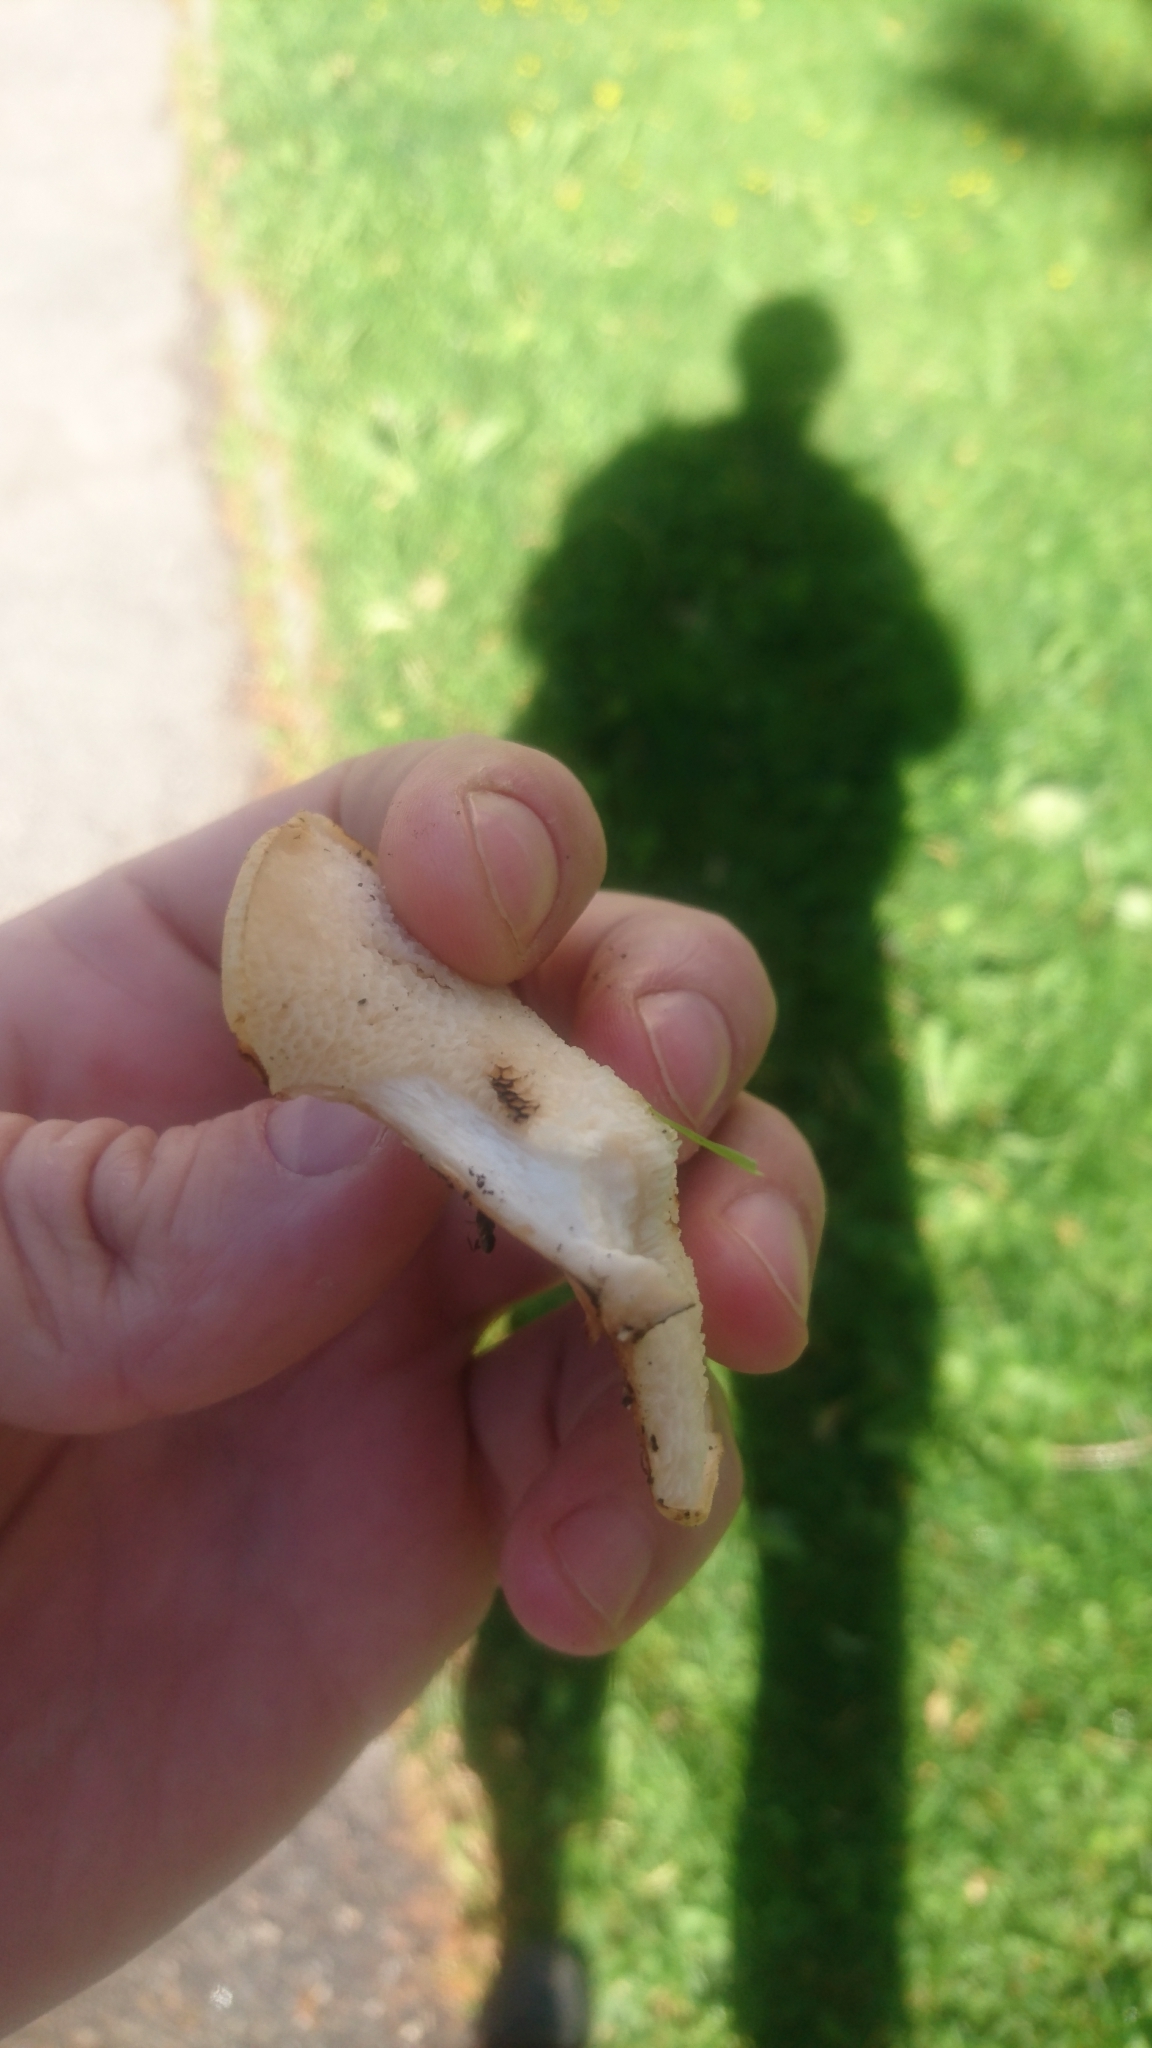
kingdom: Fungi
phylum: Basidiomycota
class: Agaricomycetes
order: Polyporales
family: Polyporaceae
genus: Cerioporus
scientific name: Cerioporus squamosus
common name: Dryad's saddle
